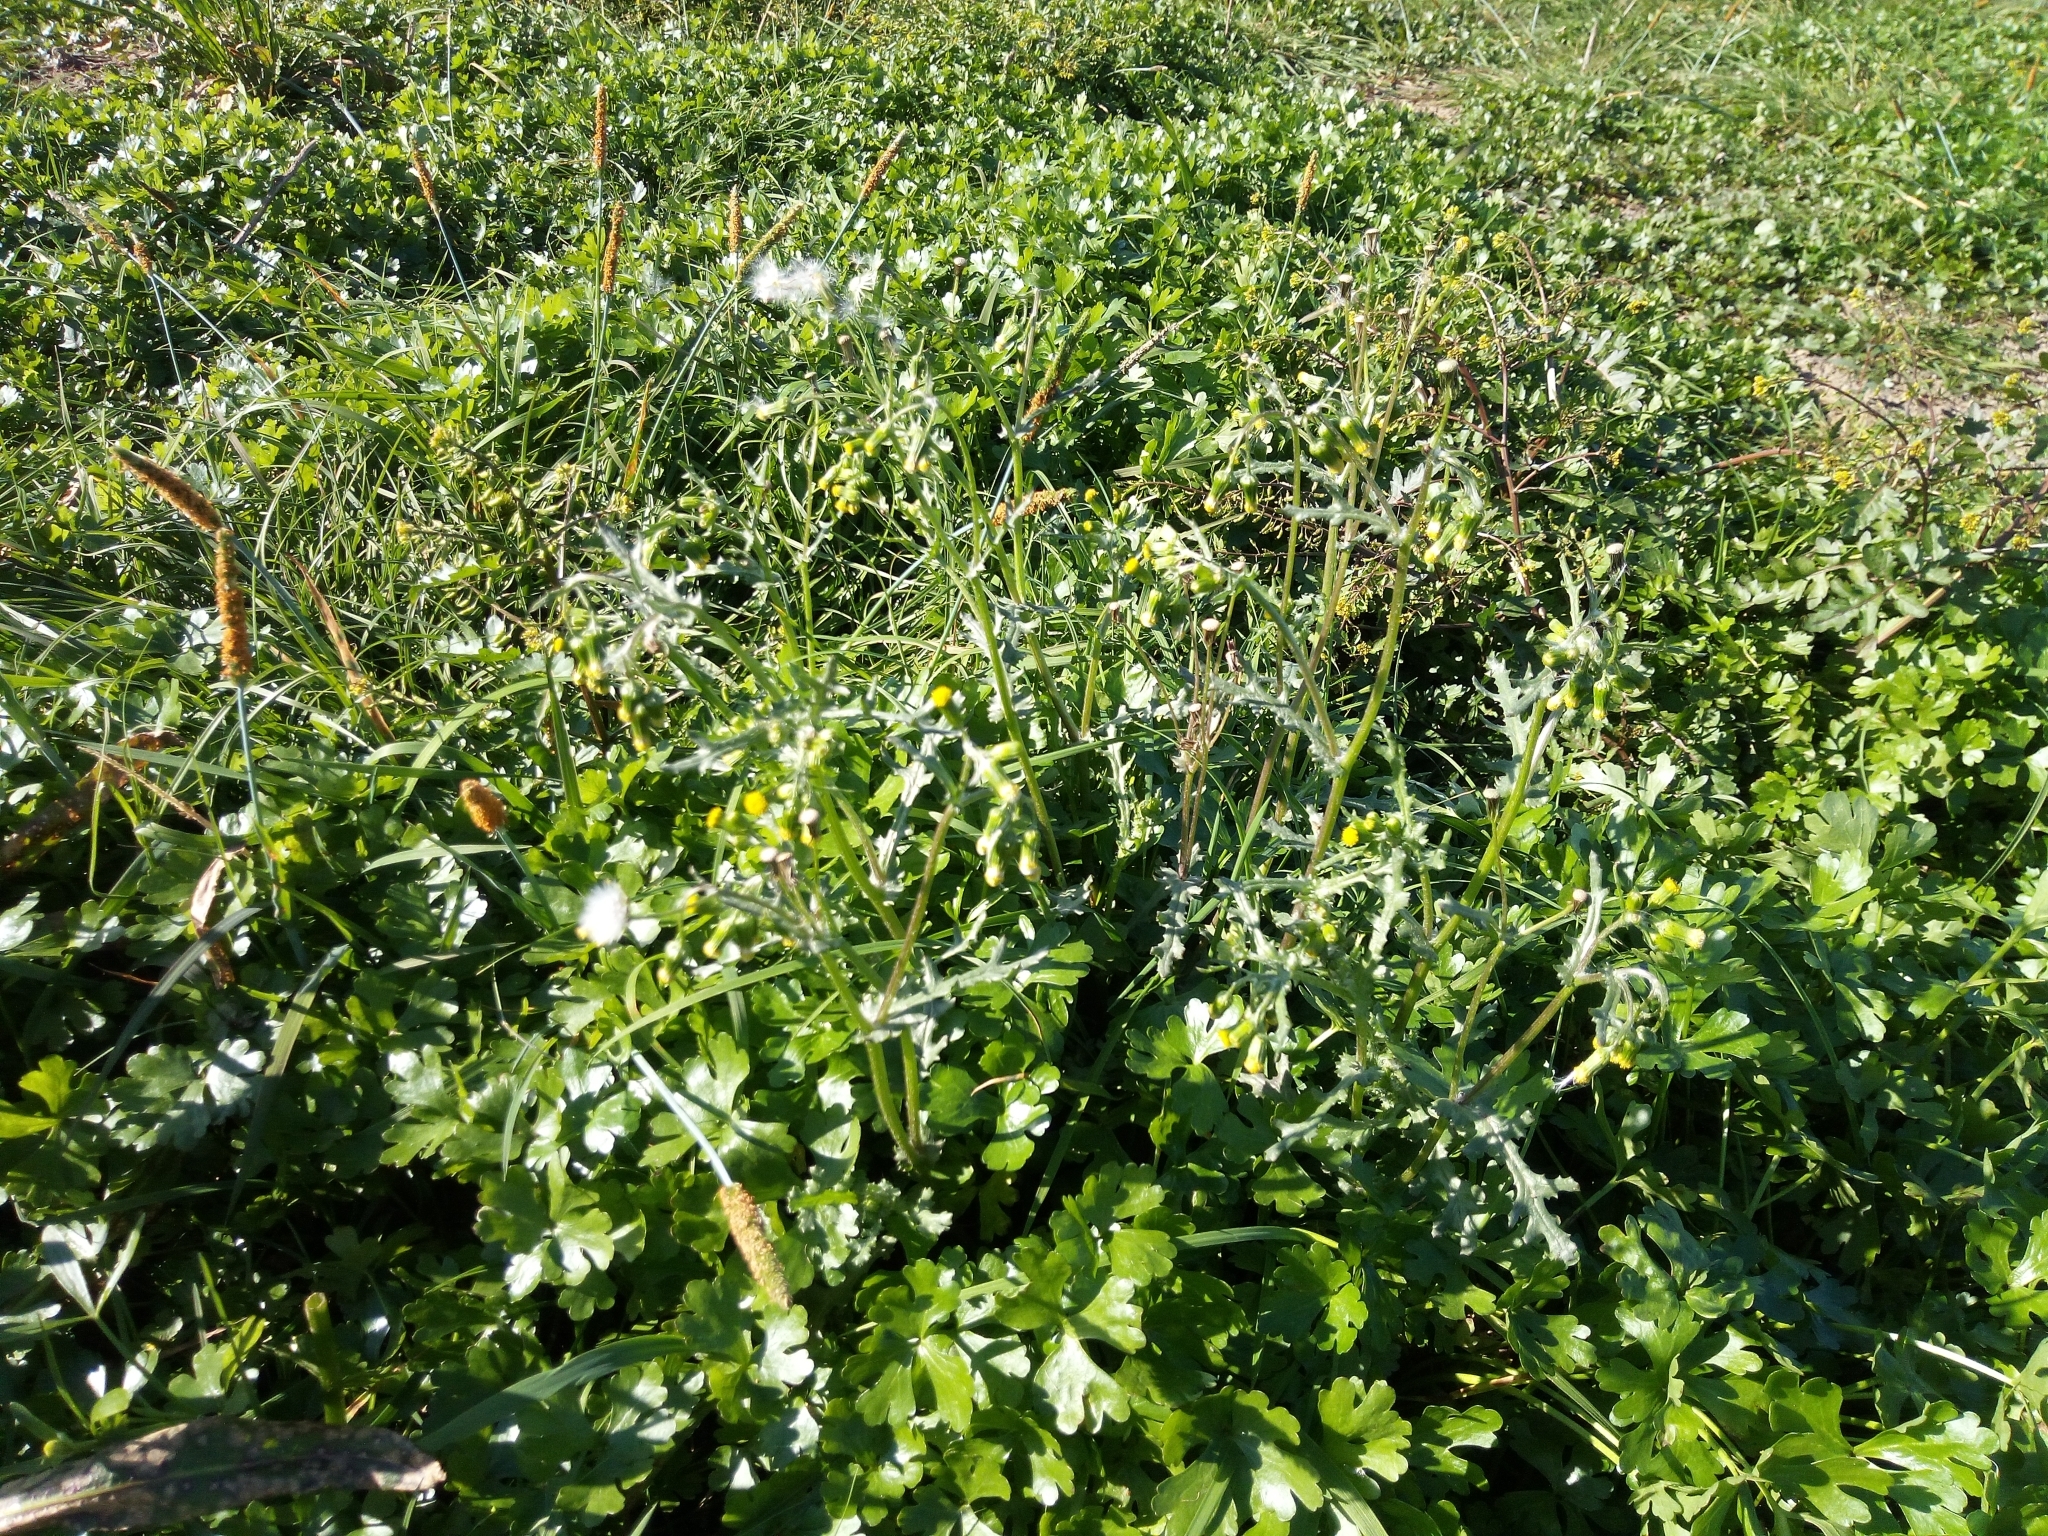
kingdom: Plantae
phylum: Tracheophyta
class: Magnoliopsida
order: Asterales
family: Asteraceae
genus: Senecio
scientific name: Senecio vulgaris
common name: Old-man-in-the-spring
